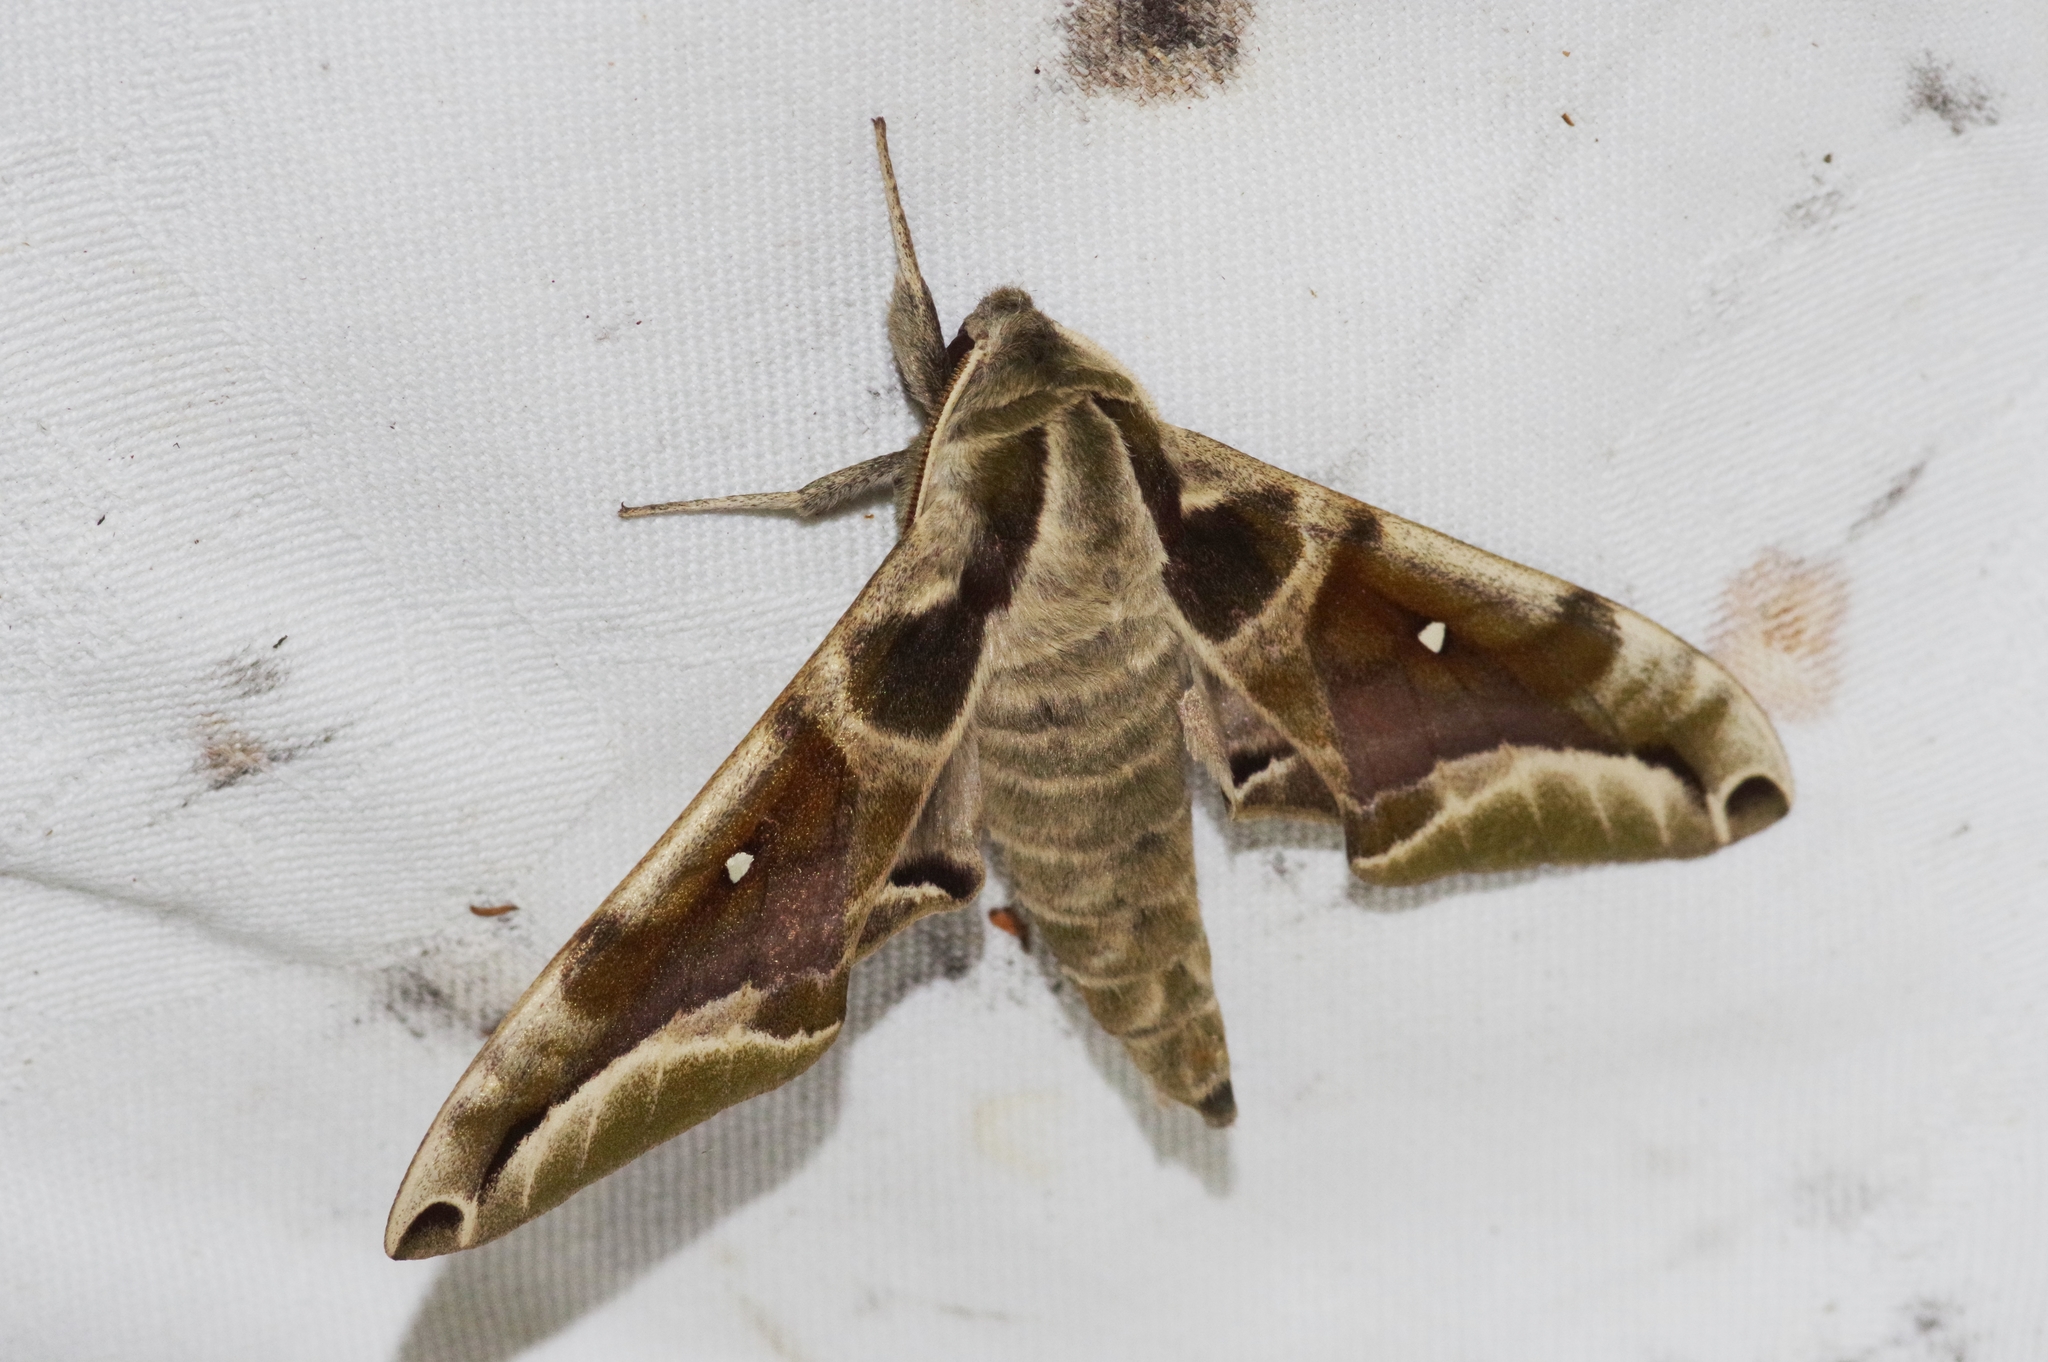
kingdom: Animalia
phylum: Arthropoda
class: Insecta
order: Lepidoptera
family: Sphingidae
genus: Parum
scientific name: Parum colligata
